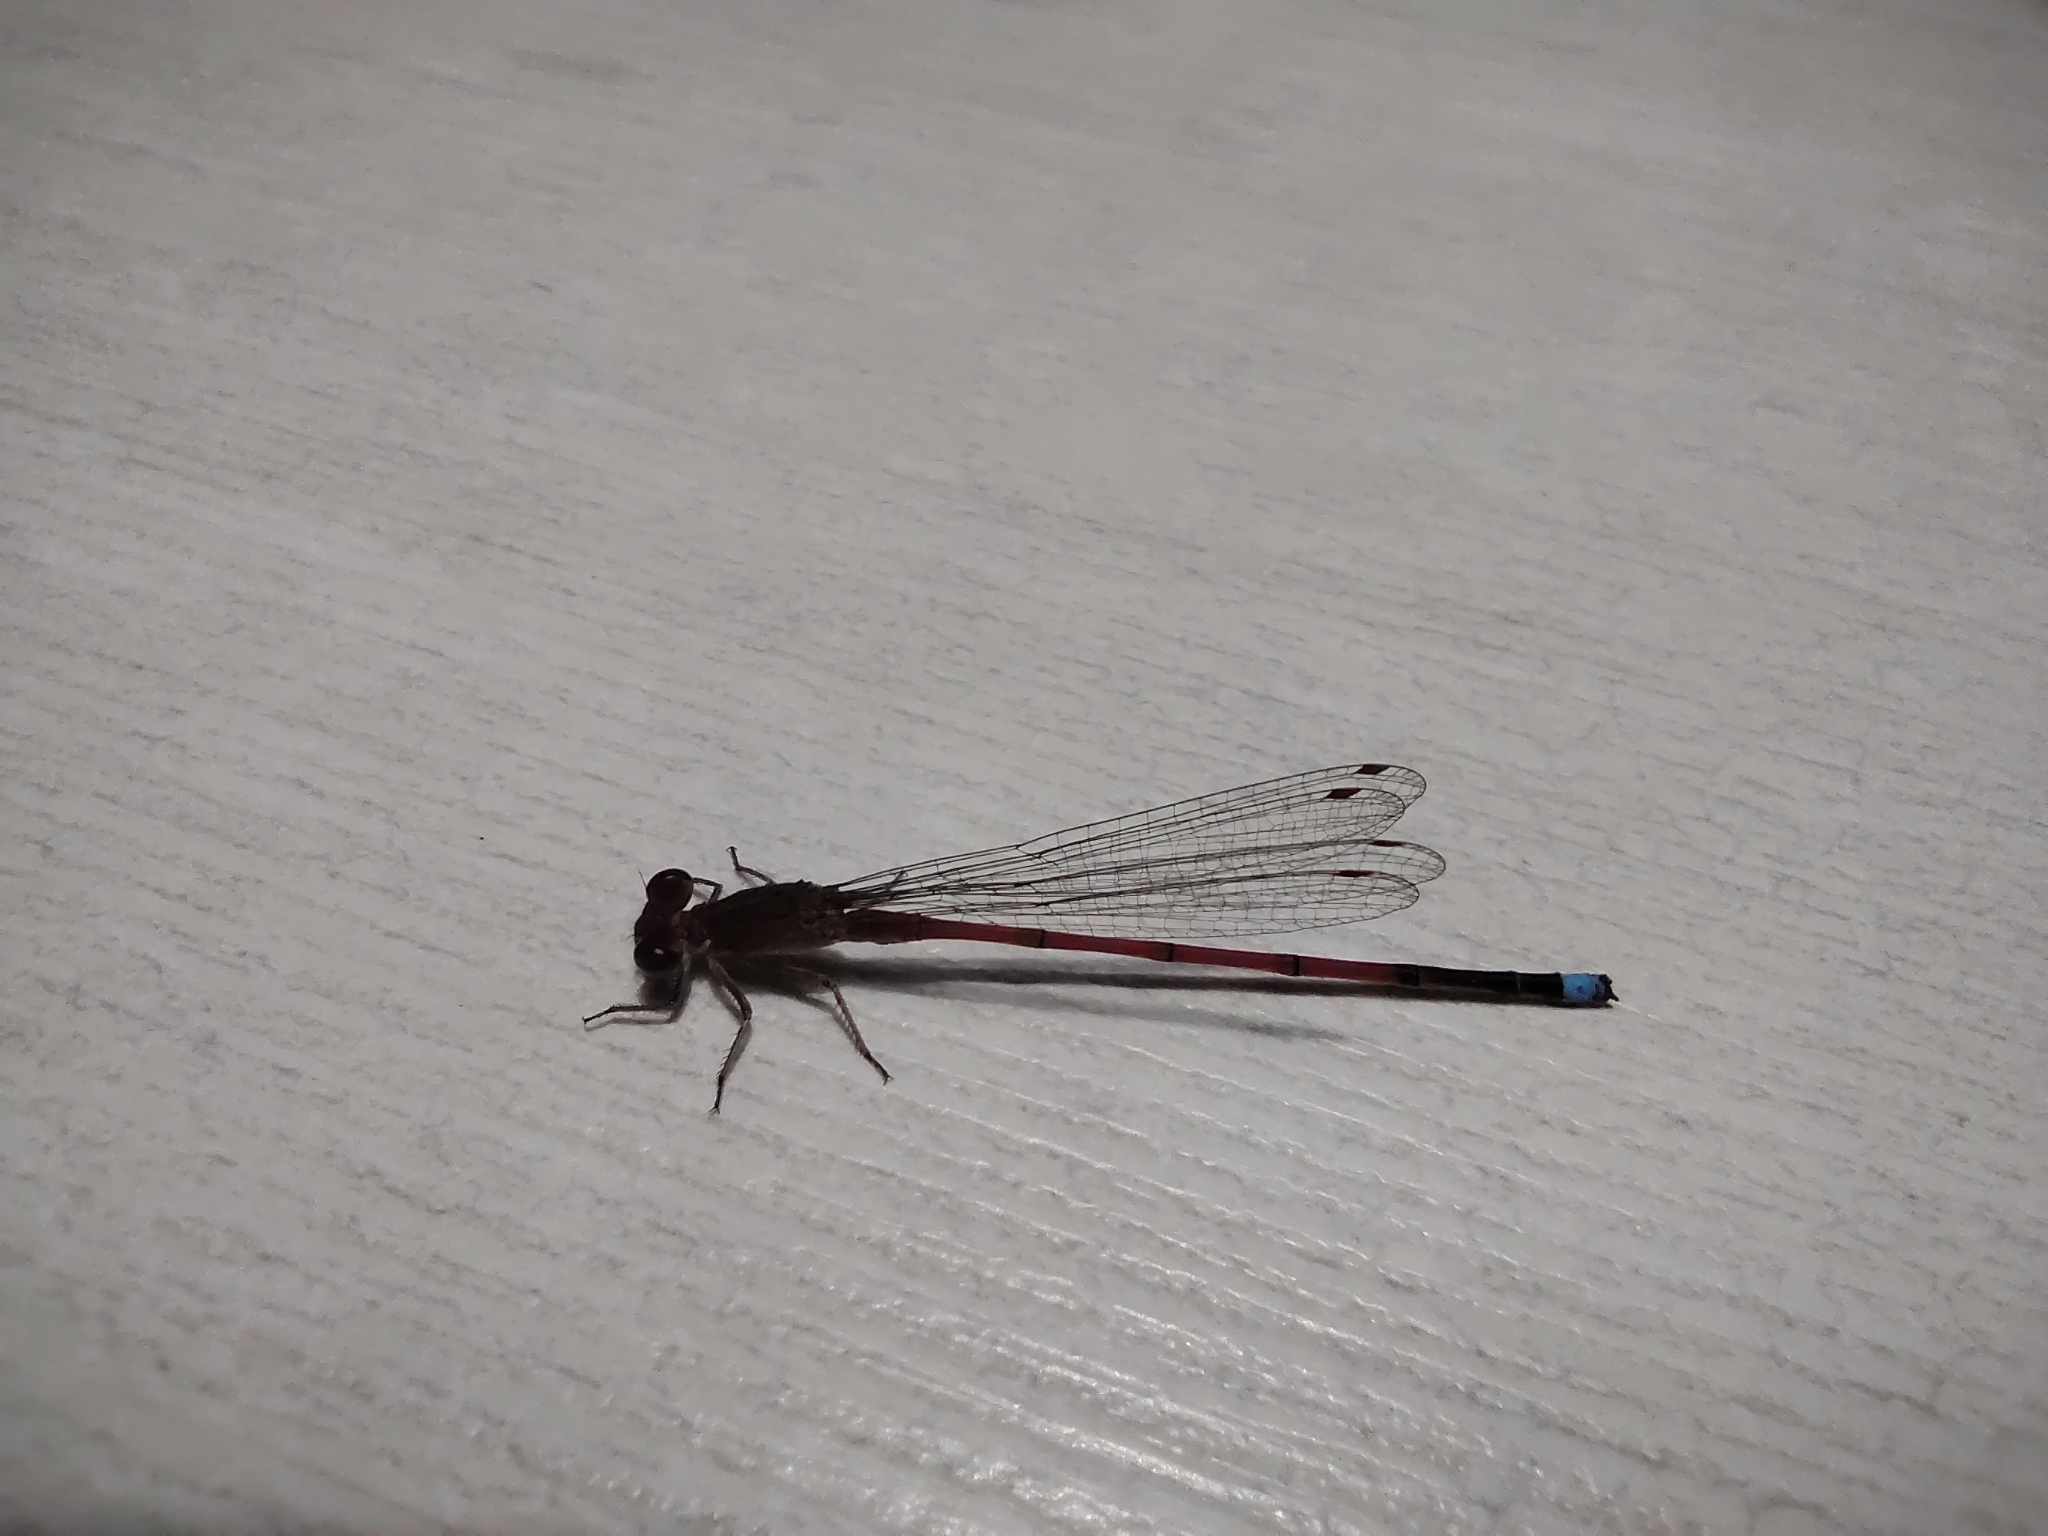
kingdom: Animalia
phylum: Arthropoda
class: Insecta
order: Odonata
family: Coenagrionidae
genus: Oxyagrion
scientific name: Oxyagrion terminale
